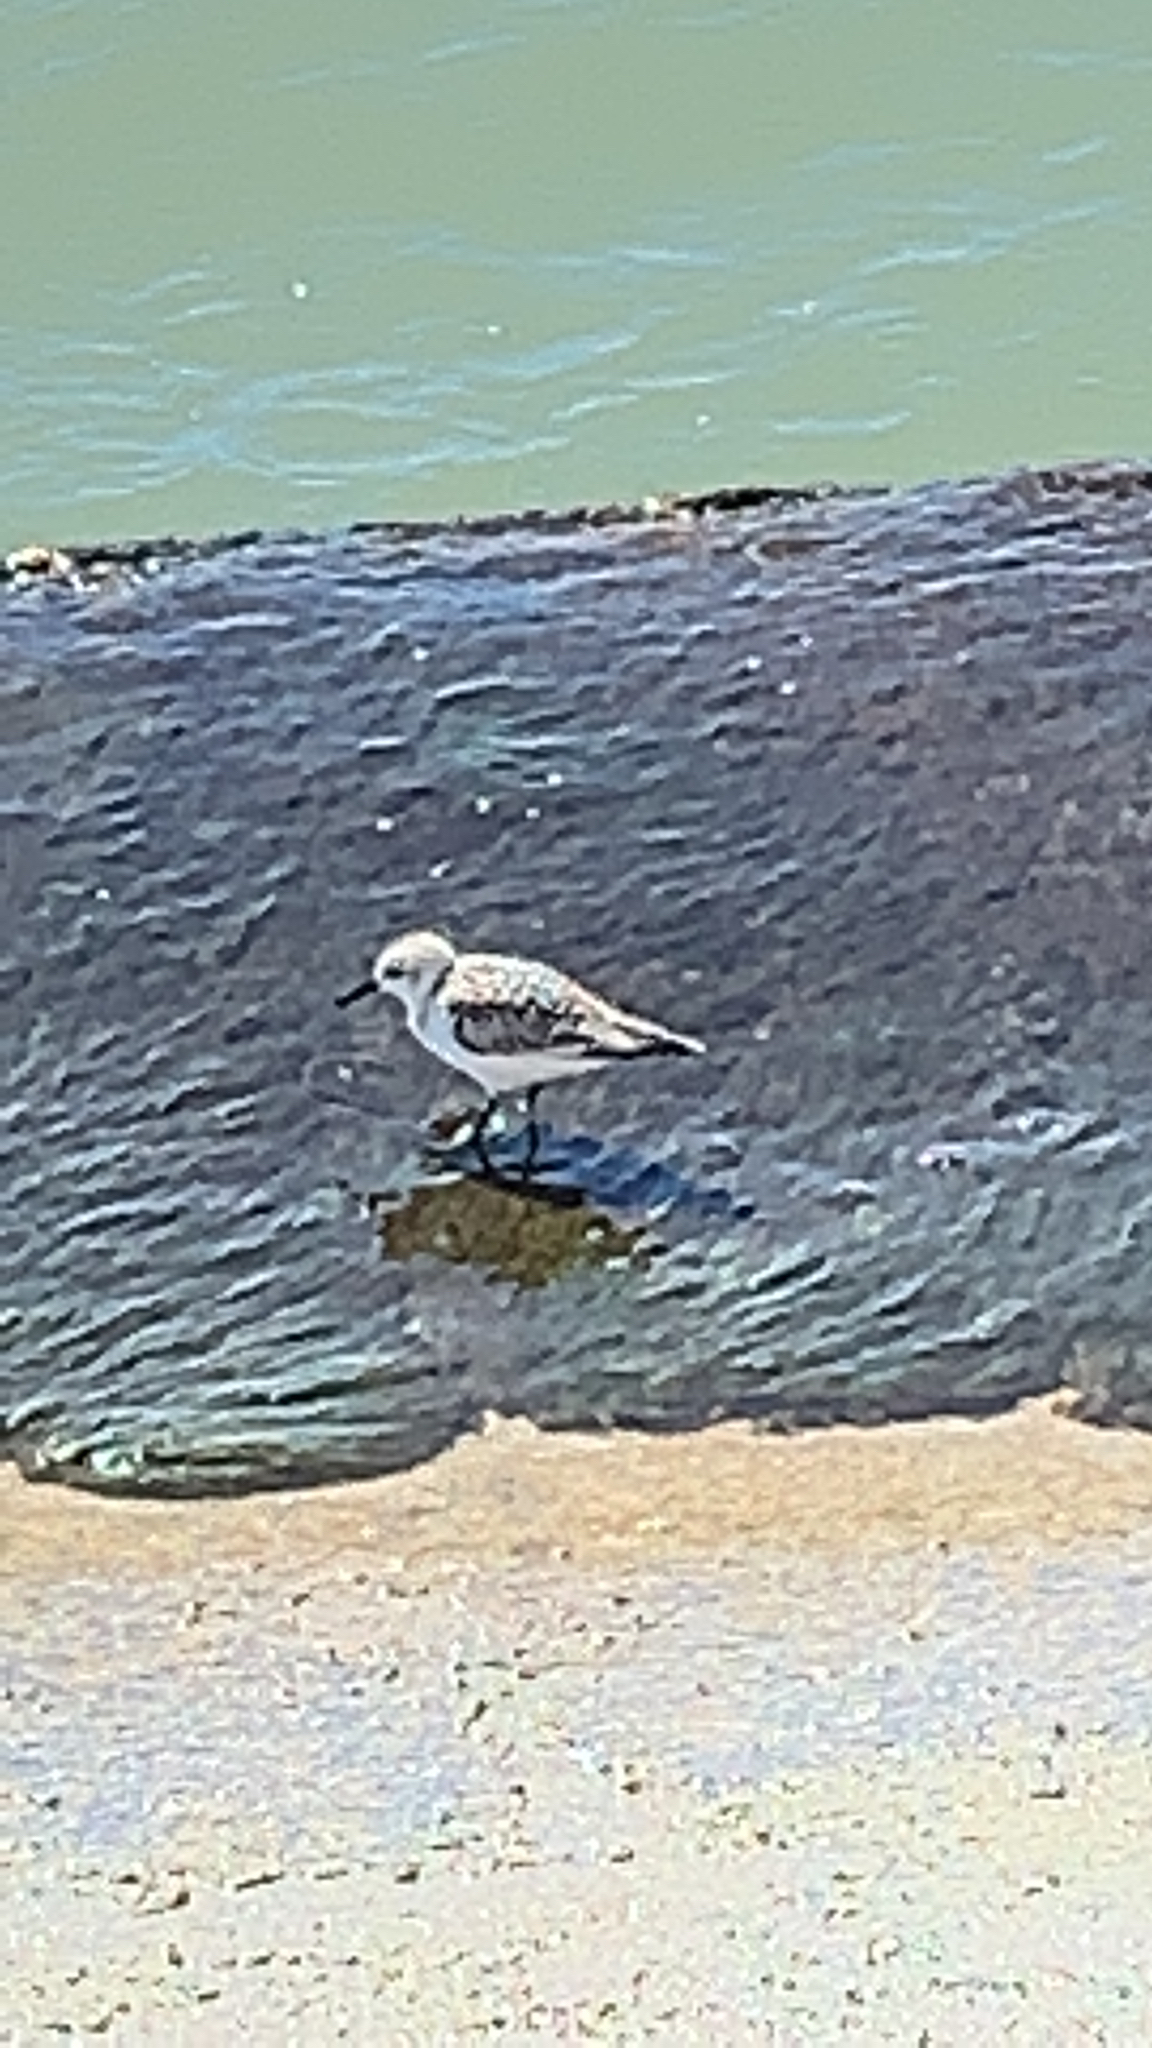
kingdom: Animalia
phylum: Chordata
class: Aves
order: Charadriiformes
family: Scolopacidae
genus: Calidris
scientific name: Calidris alba
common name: Sanderling
